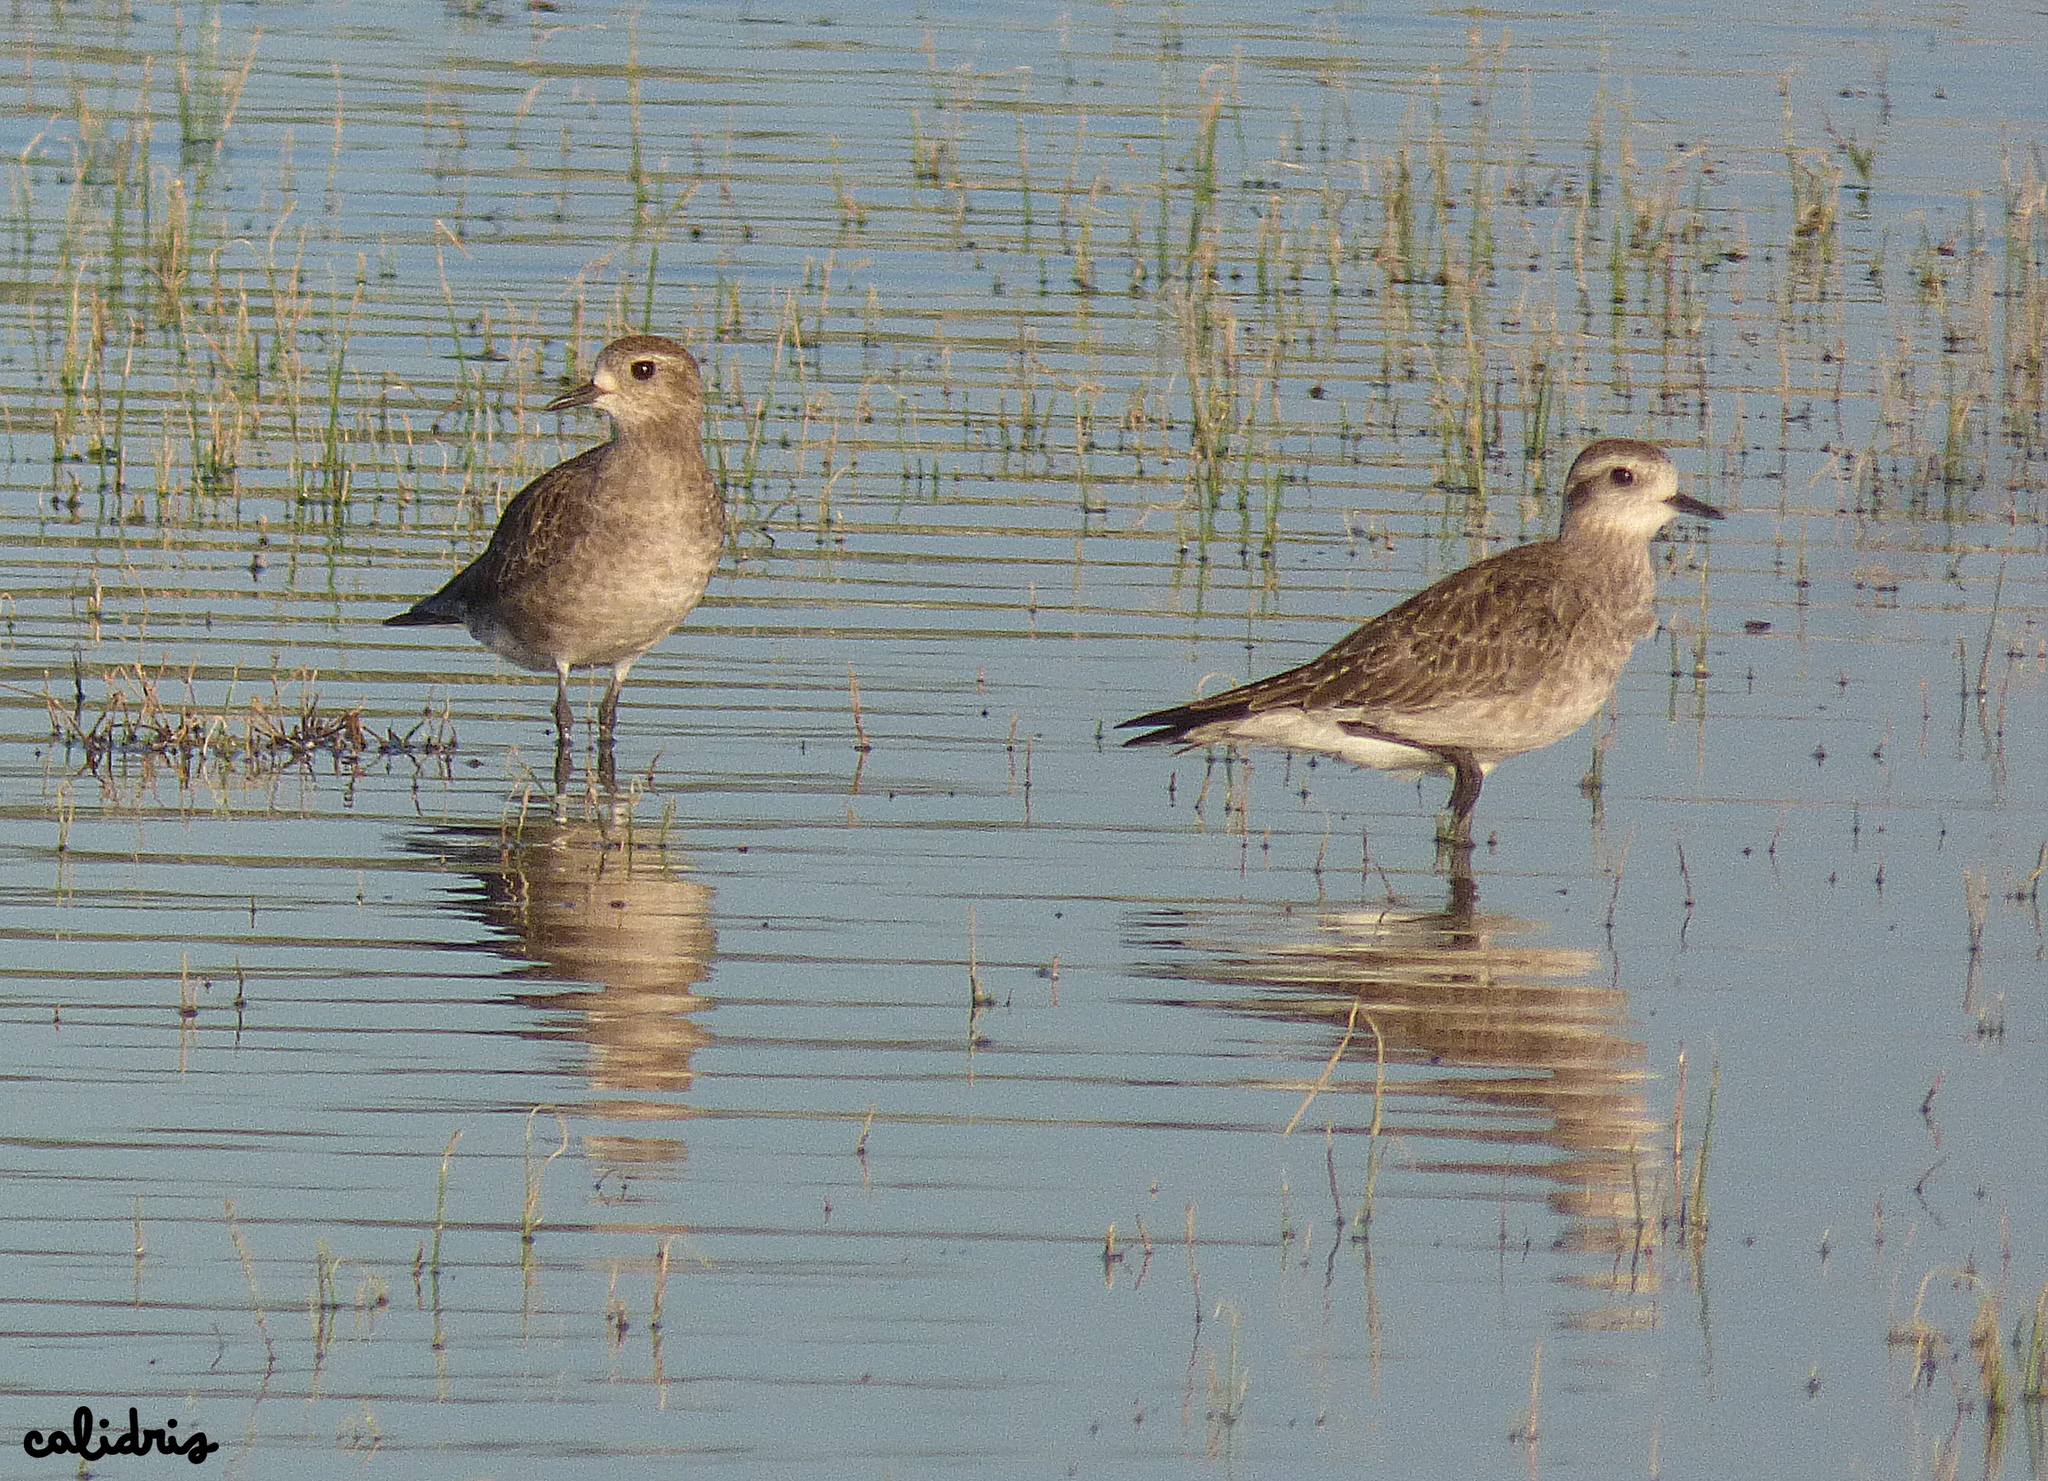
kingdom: Animalia
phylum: Chordata
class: Aves
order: Charadriiformes
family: Charadriidae
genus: Pluvialis
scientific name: Pluvialis dominica
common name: American golden plover
